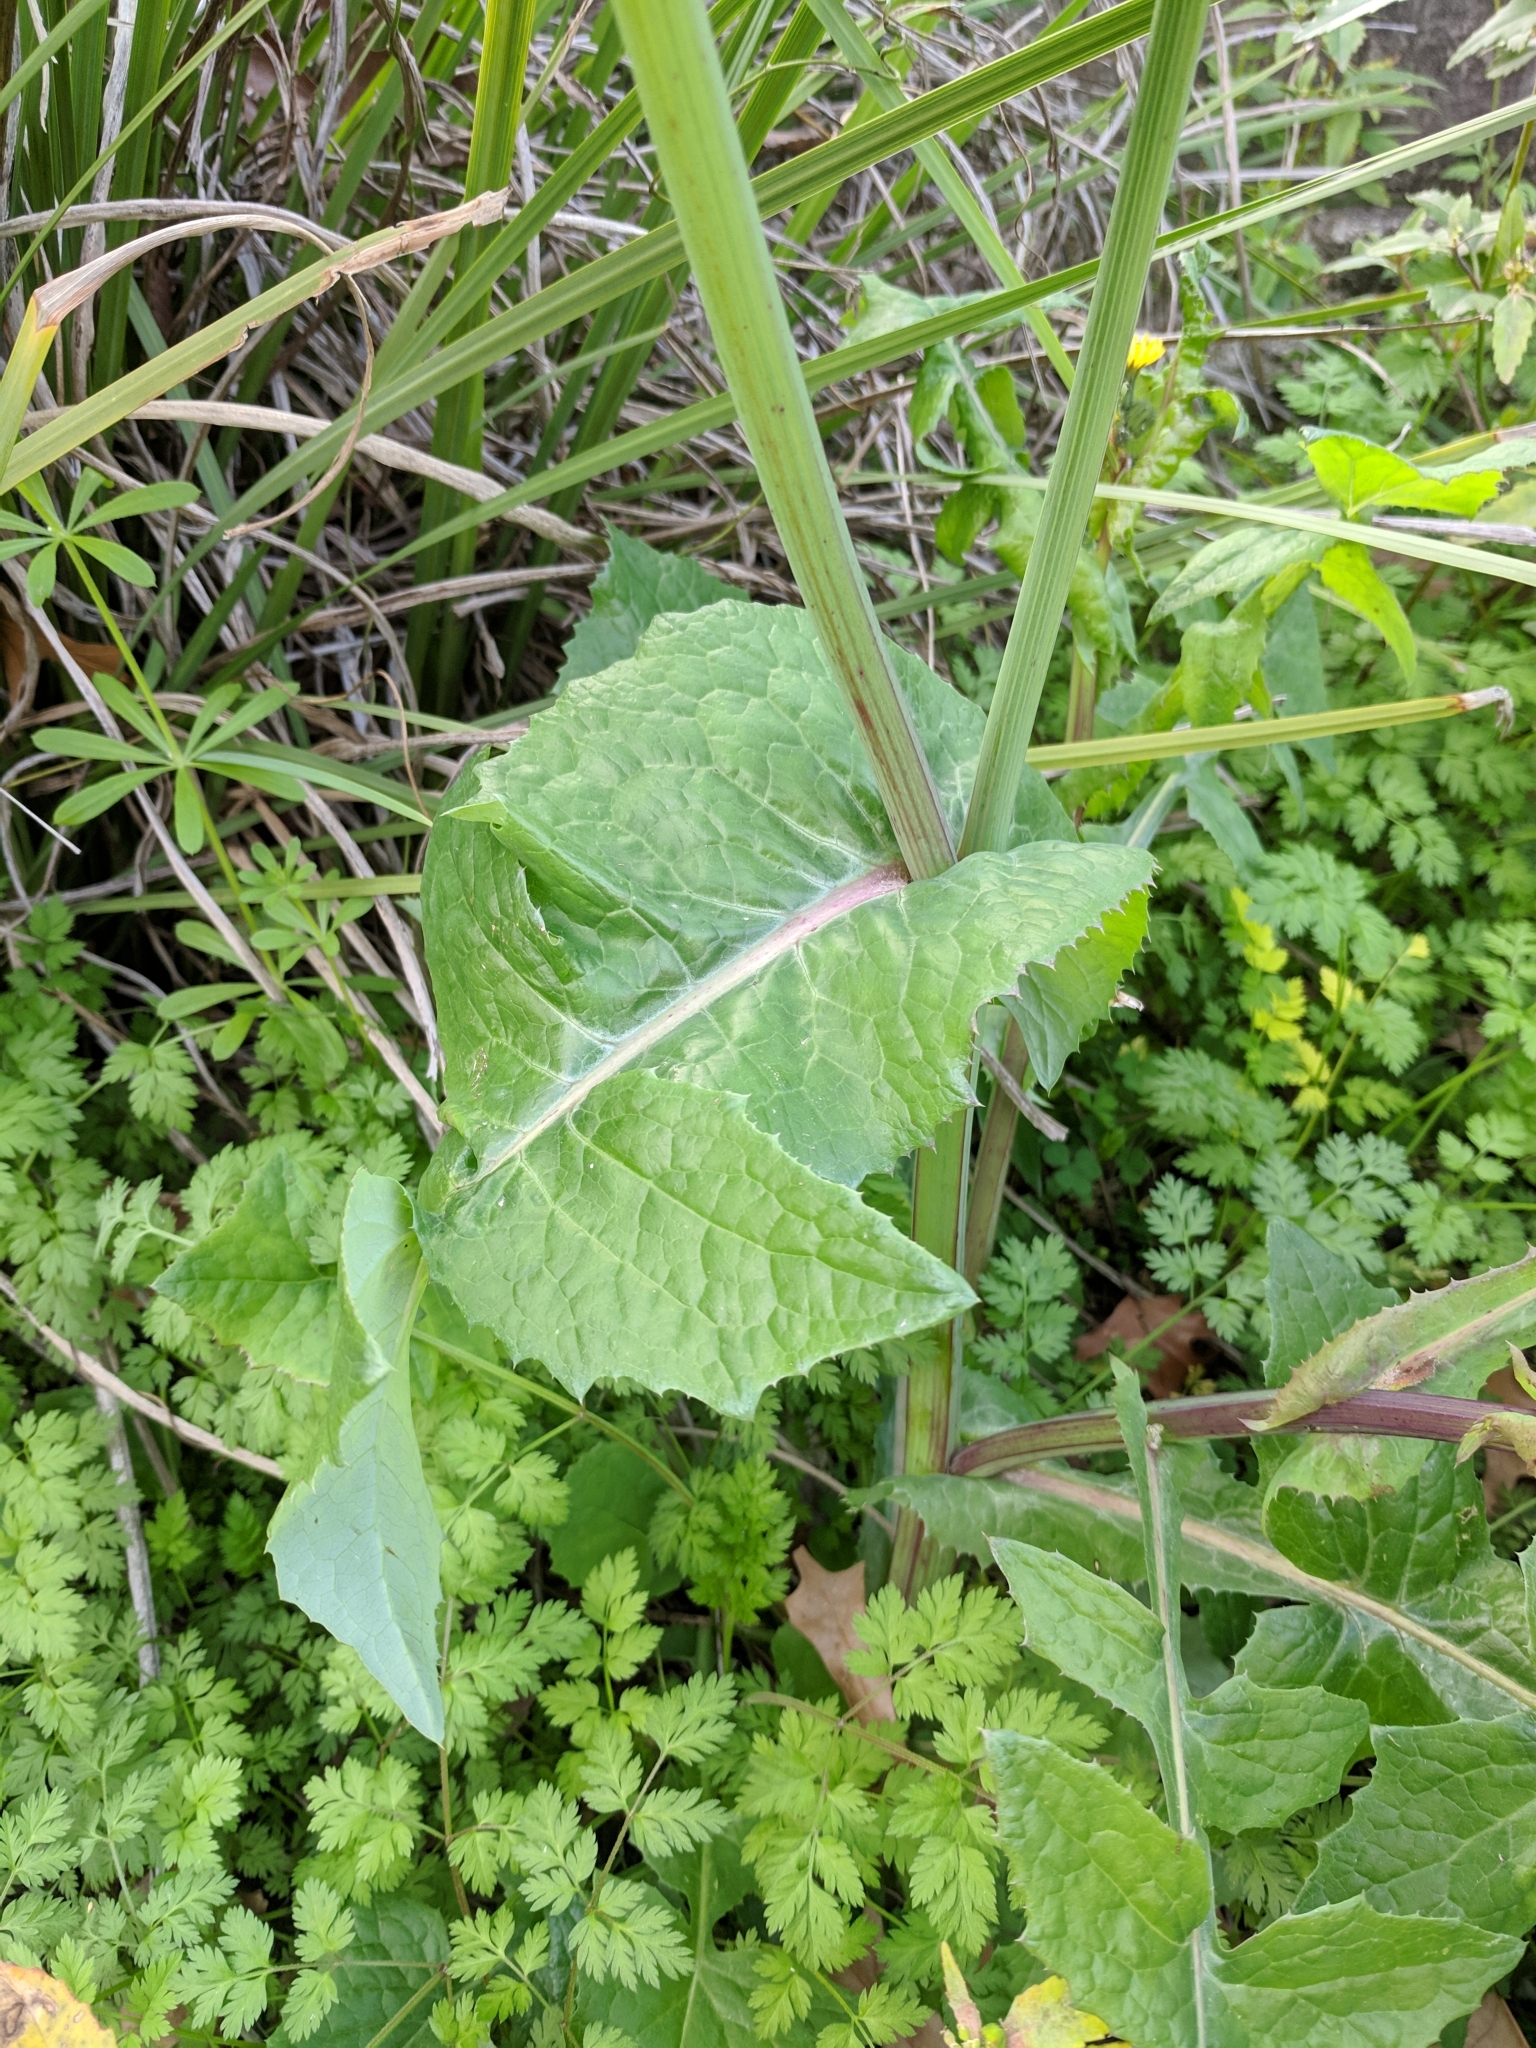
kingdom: Plantae
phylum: Tracheophyta
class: Magnoliopsida
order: Asterales
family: Asteraceae
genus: Sonchus
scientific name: Sonchus oleraceus
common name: Common sowthistle
